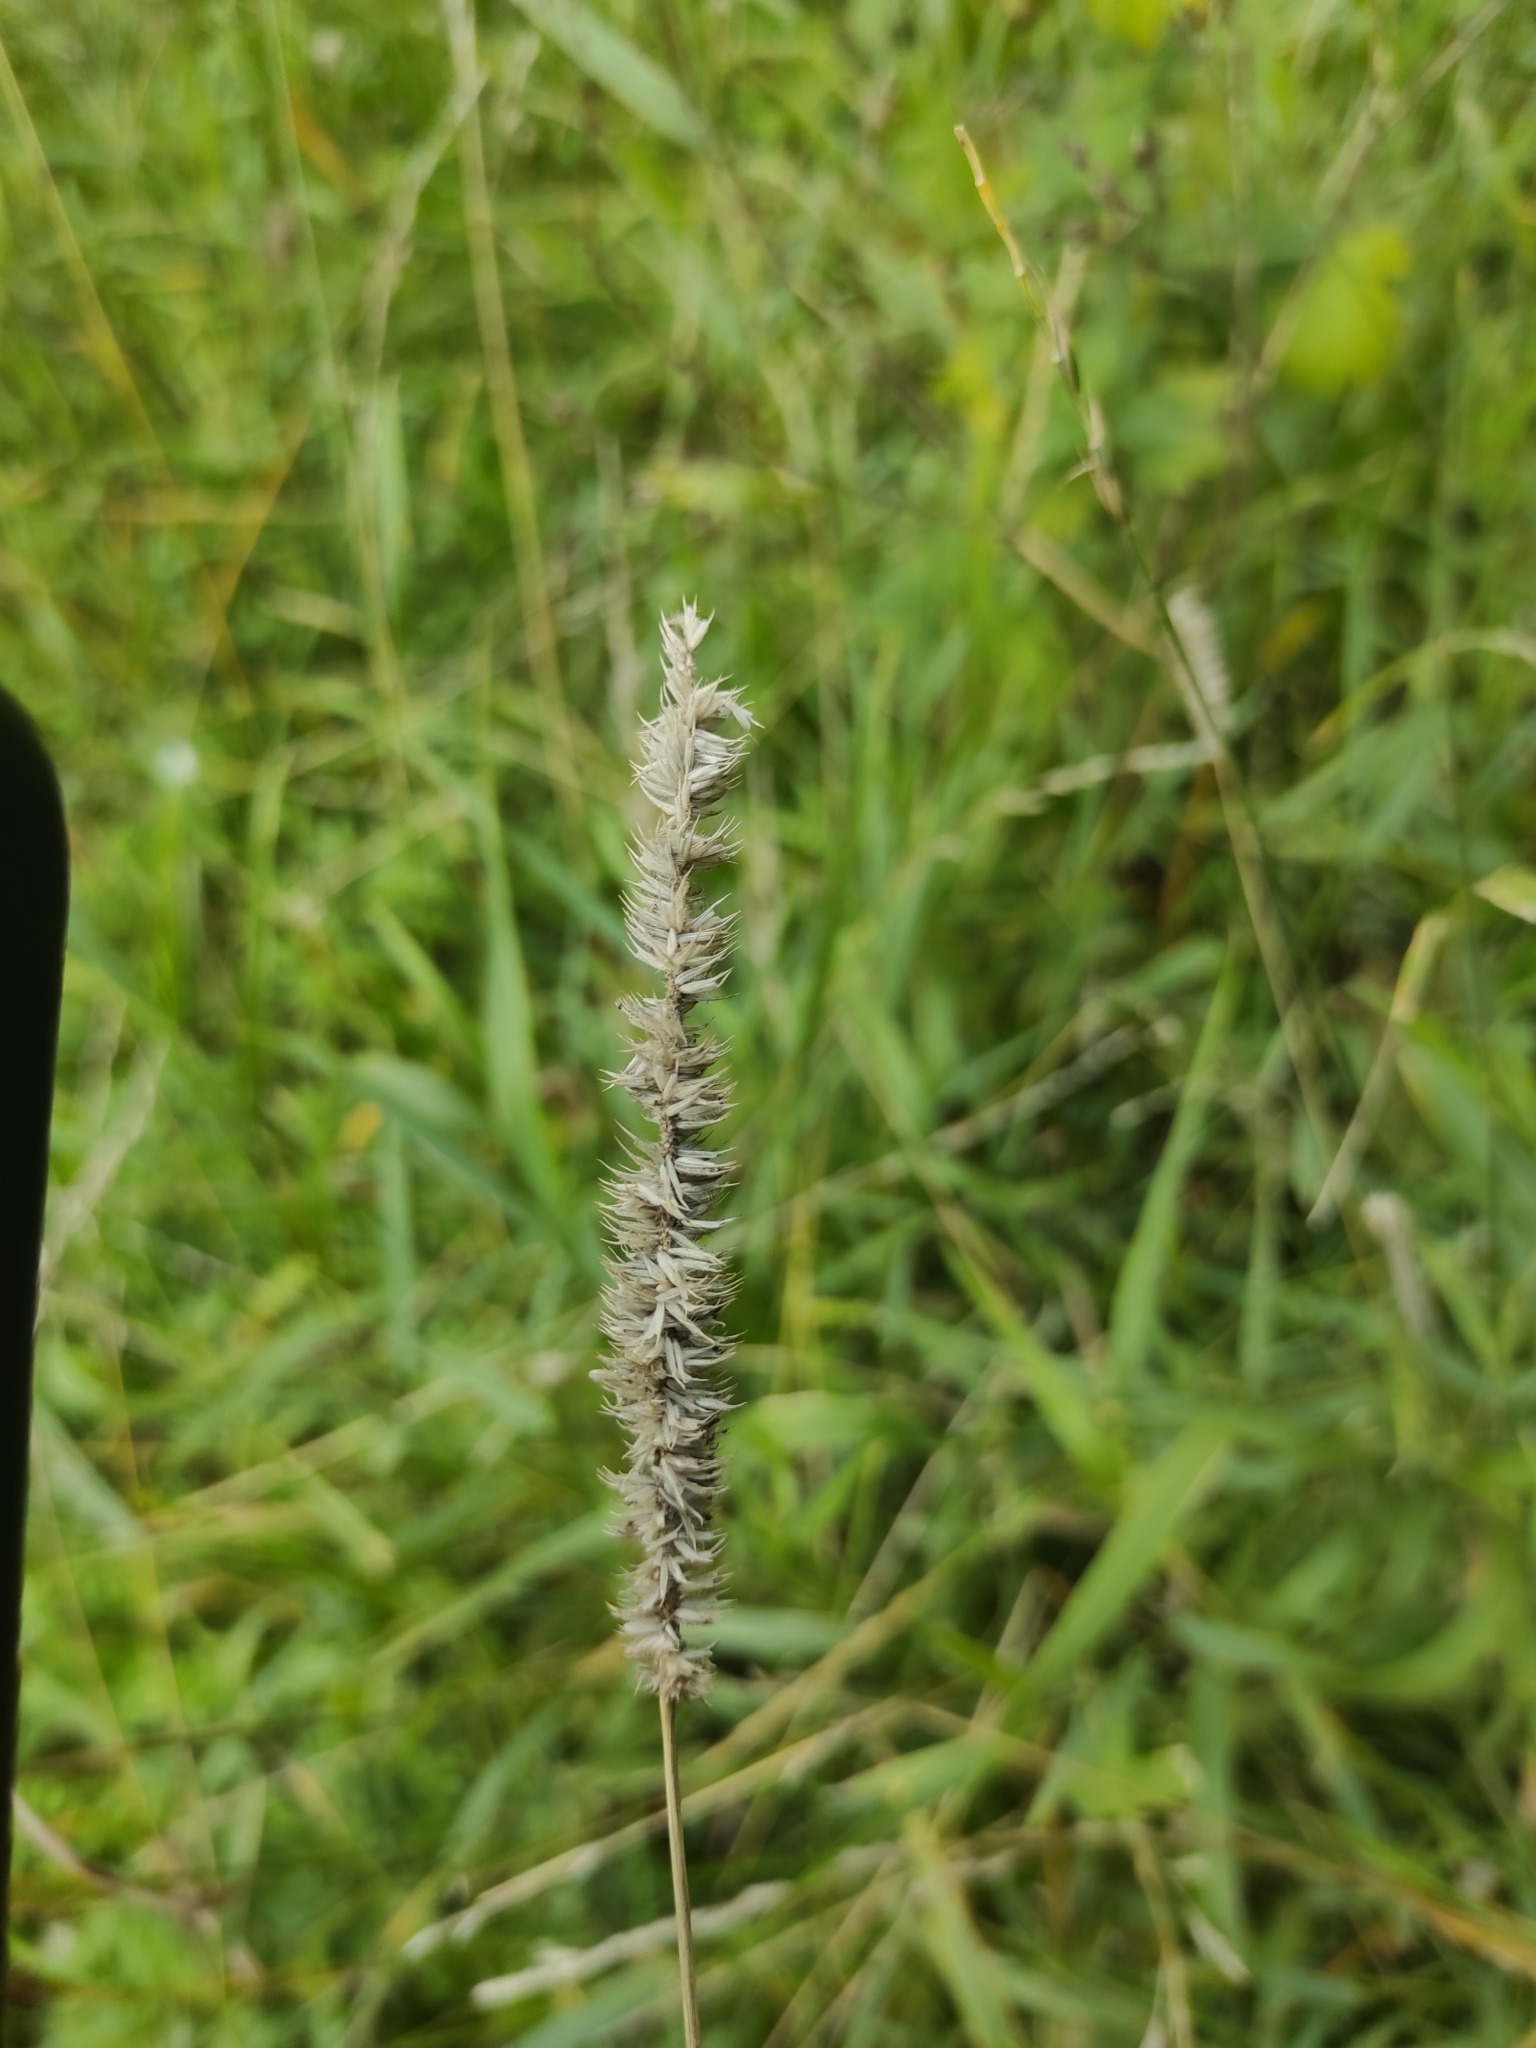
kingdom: Plantae
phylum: Tracheophyta
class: Liliopsida
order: Poales
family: Poaceae
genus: Phleum
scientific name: Phleum pratense
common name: Timothy grass
